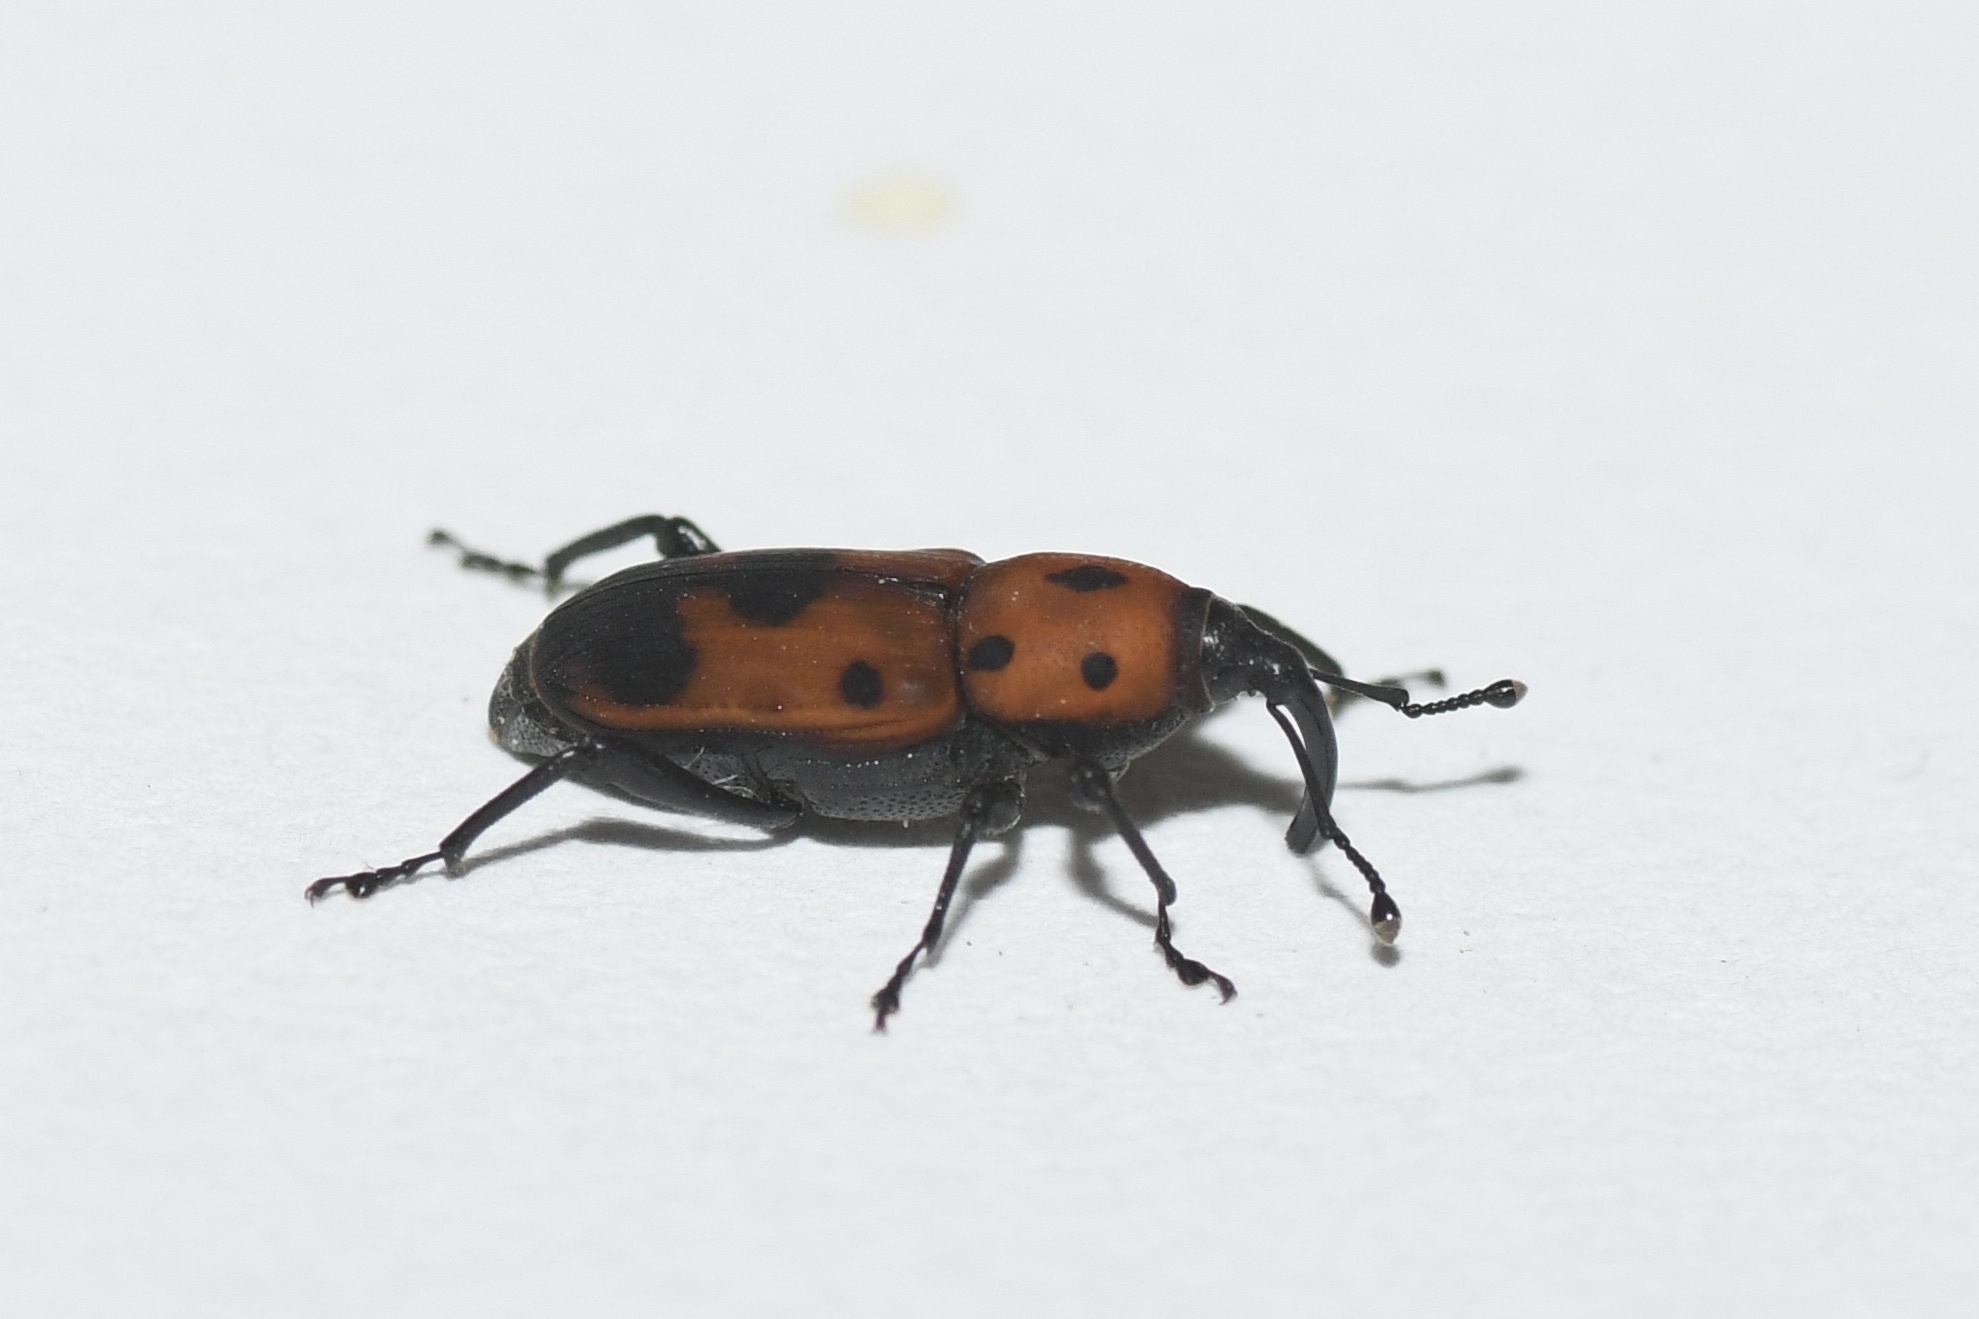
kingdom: Animalia
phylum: Arthropoda
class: Insecta
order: Coleoptera
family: Dryophthoridae
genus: Rhodobaenus
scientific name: Rhodobaenus quinquepunctatus
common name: Cocklebur weevil
